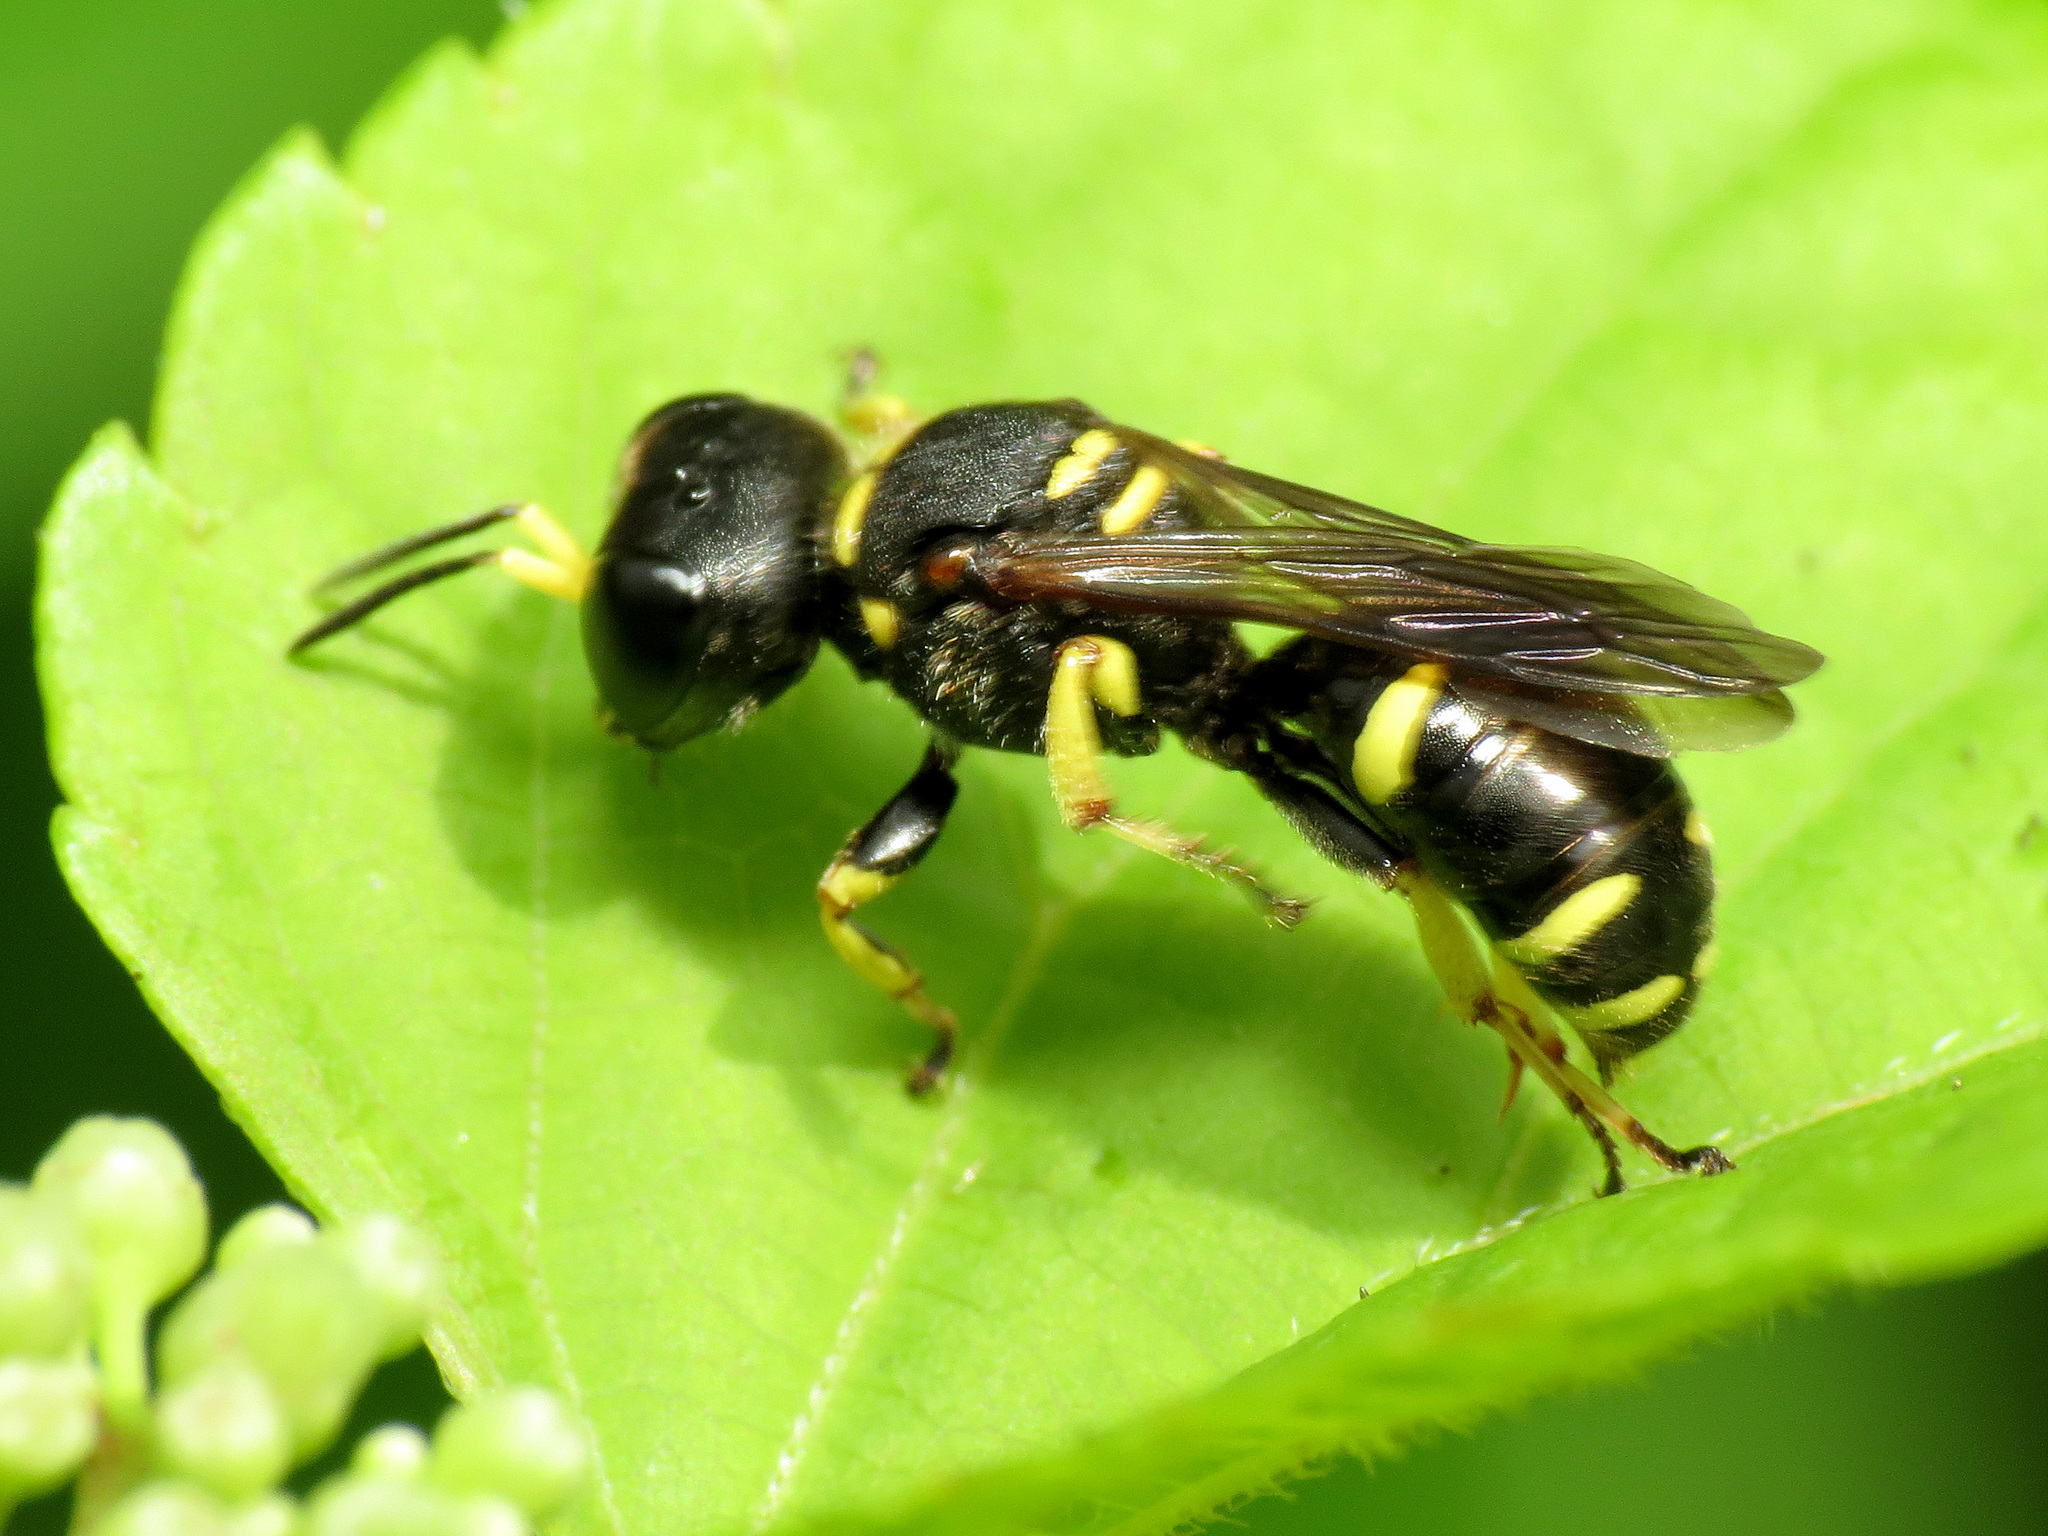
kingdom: Animalia
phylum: Arthropoda
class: Insecta
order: Hymenoptera
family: Crabronidae
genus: Ectemnius
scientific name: Ectemnius continuus
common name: Common ectemnius
